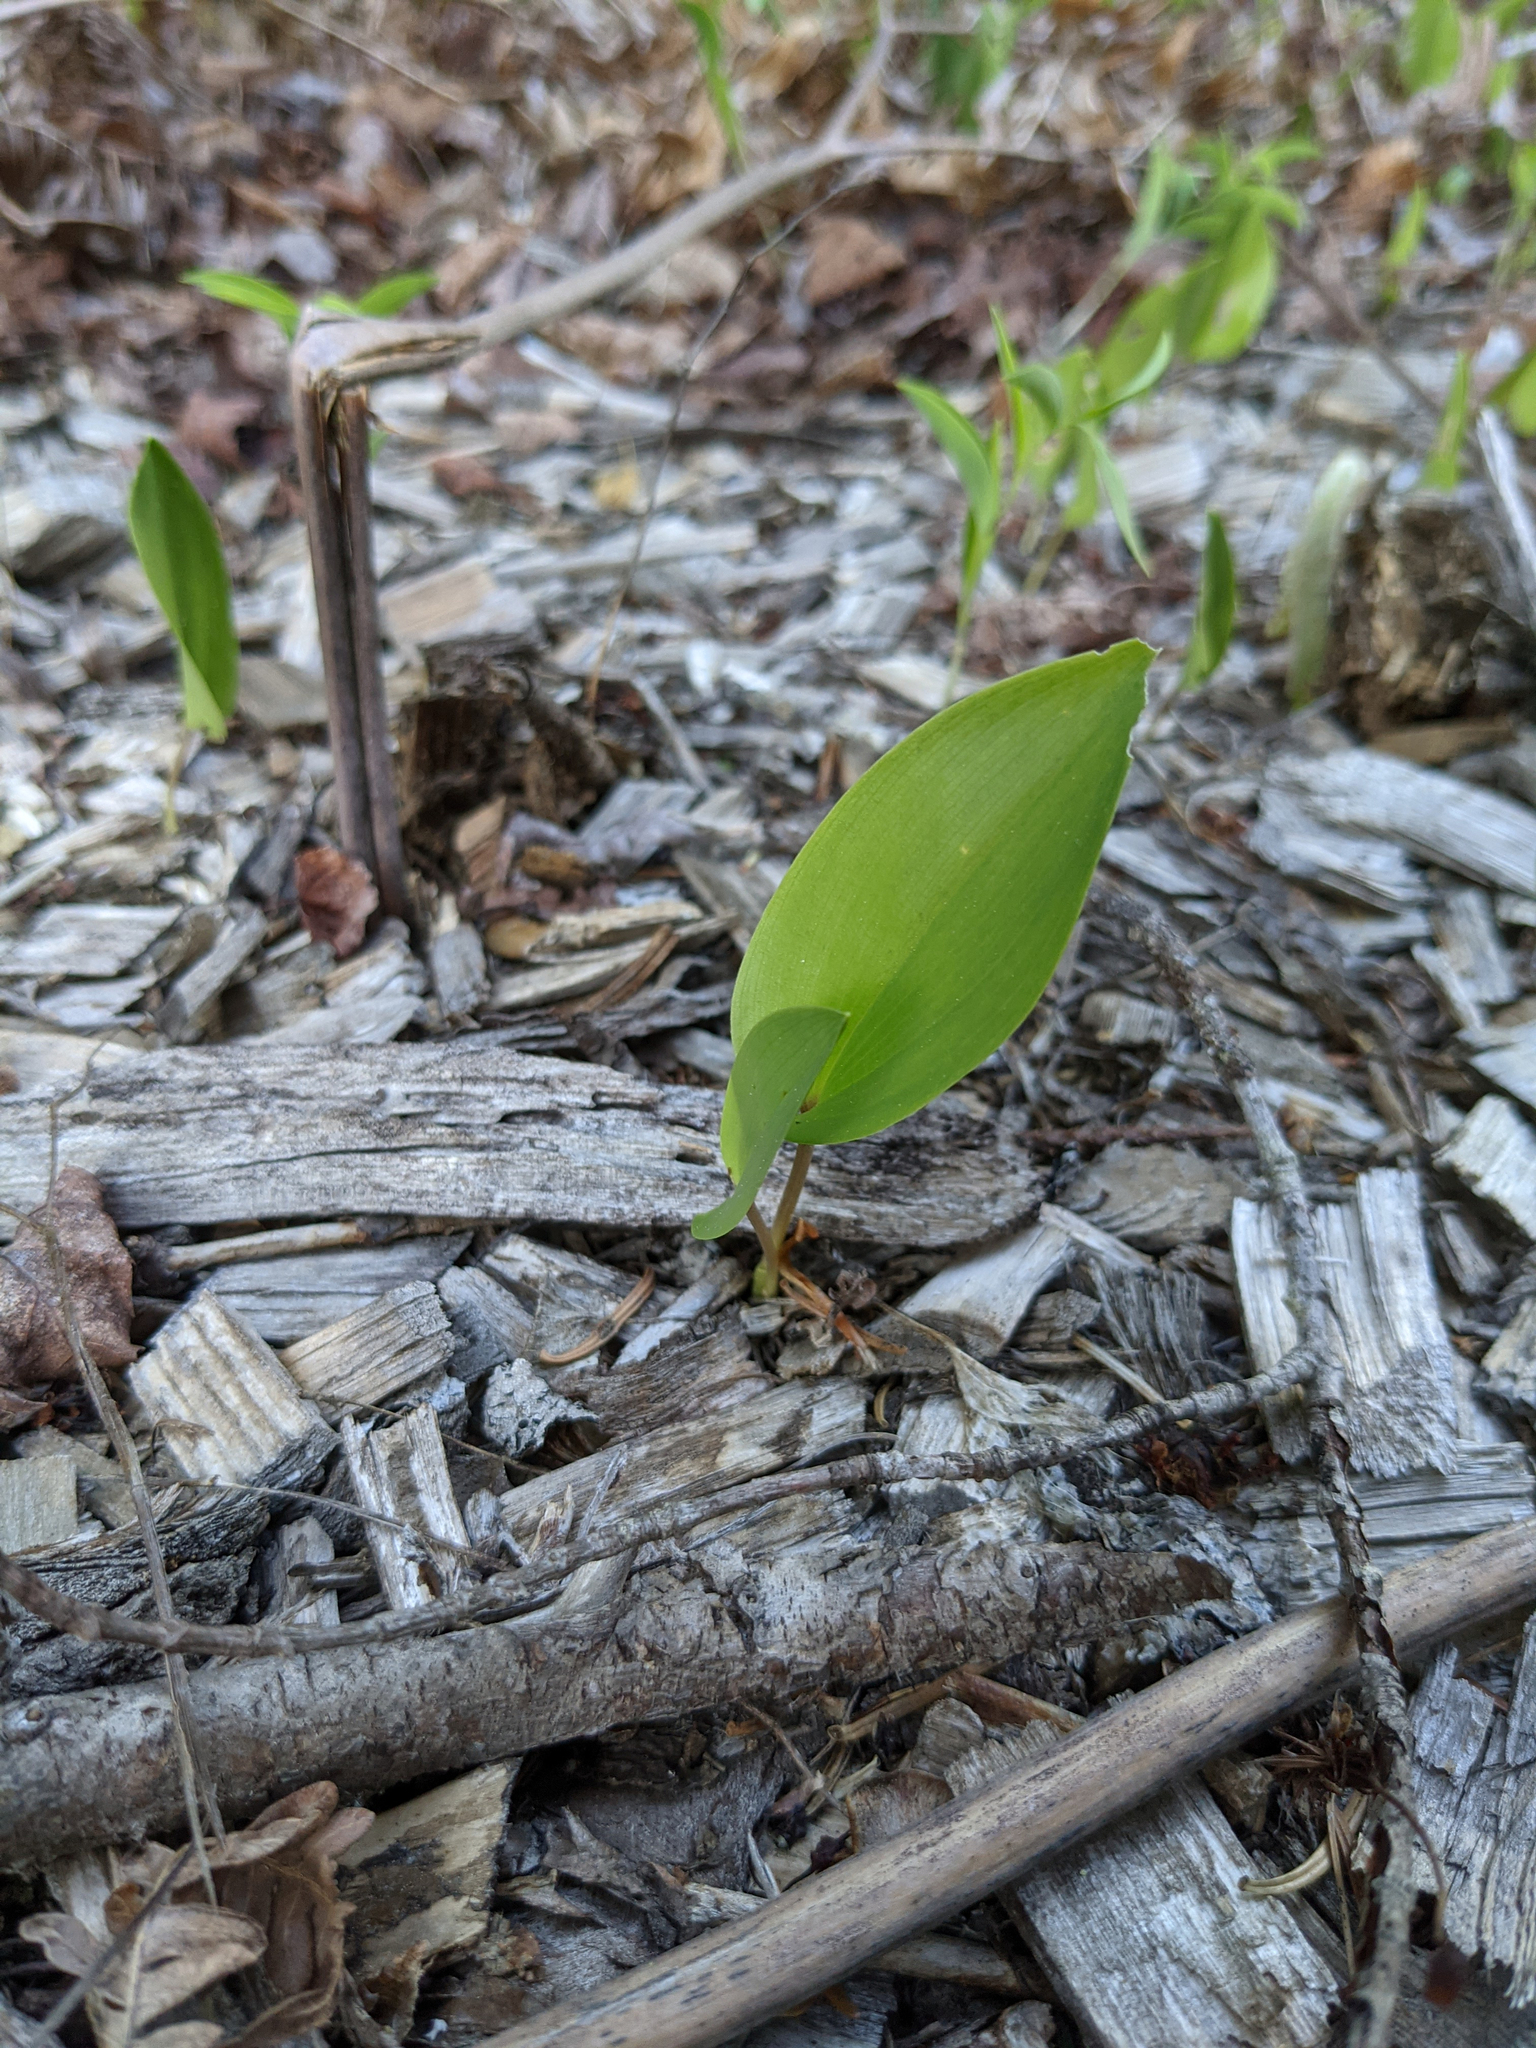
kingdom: Plantae
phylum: Tracheophyta
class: Liliopsida
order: Asparagales
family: Asparagaceae
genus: Maianthemum
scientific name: Maianthemum canadense
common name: False lily-of-the-valley
